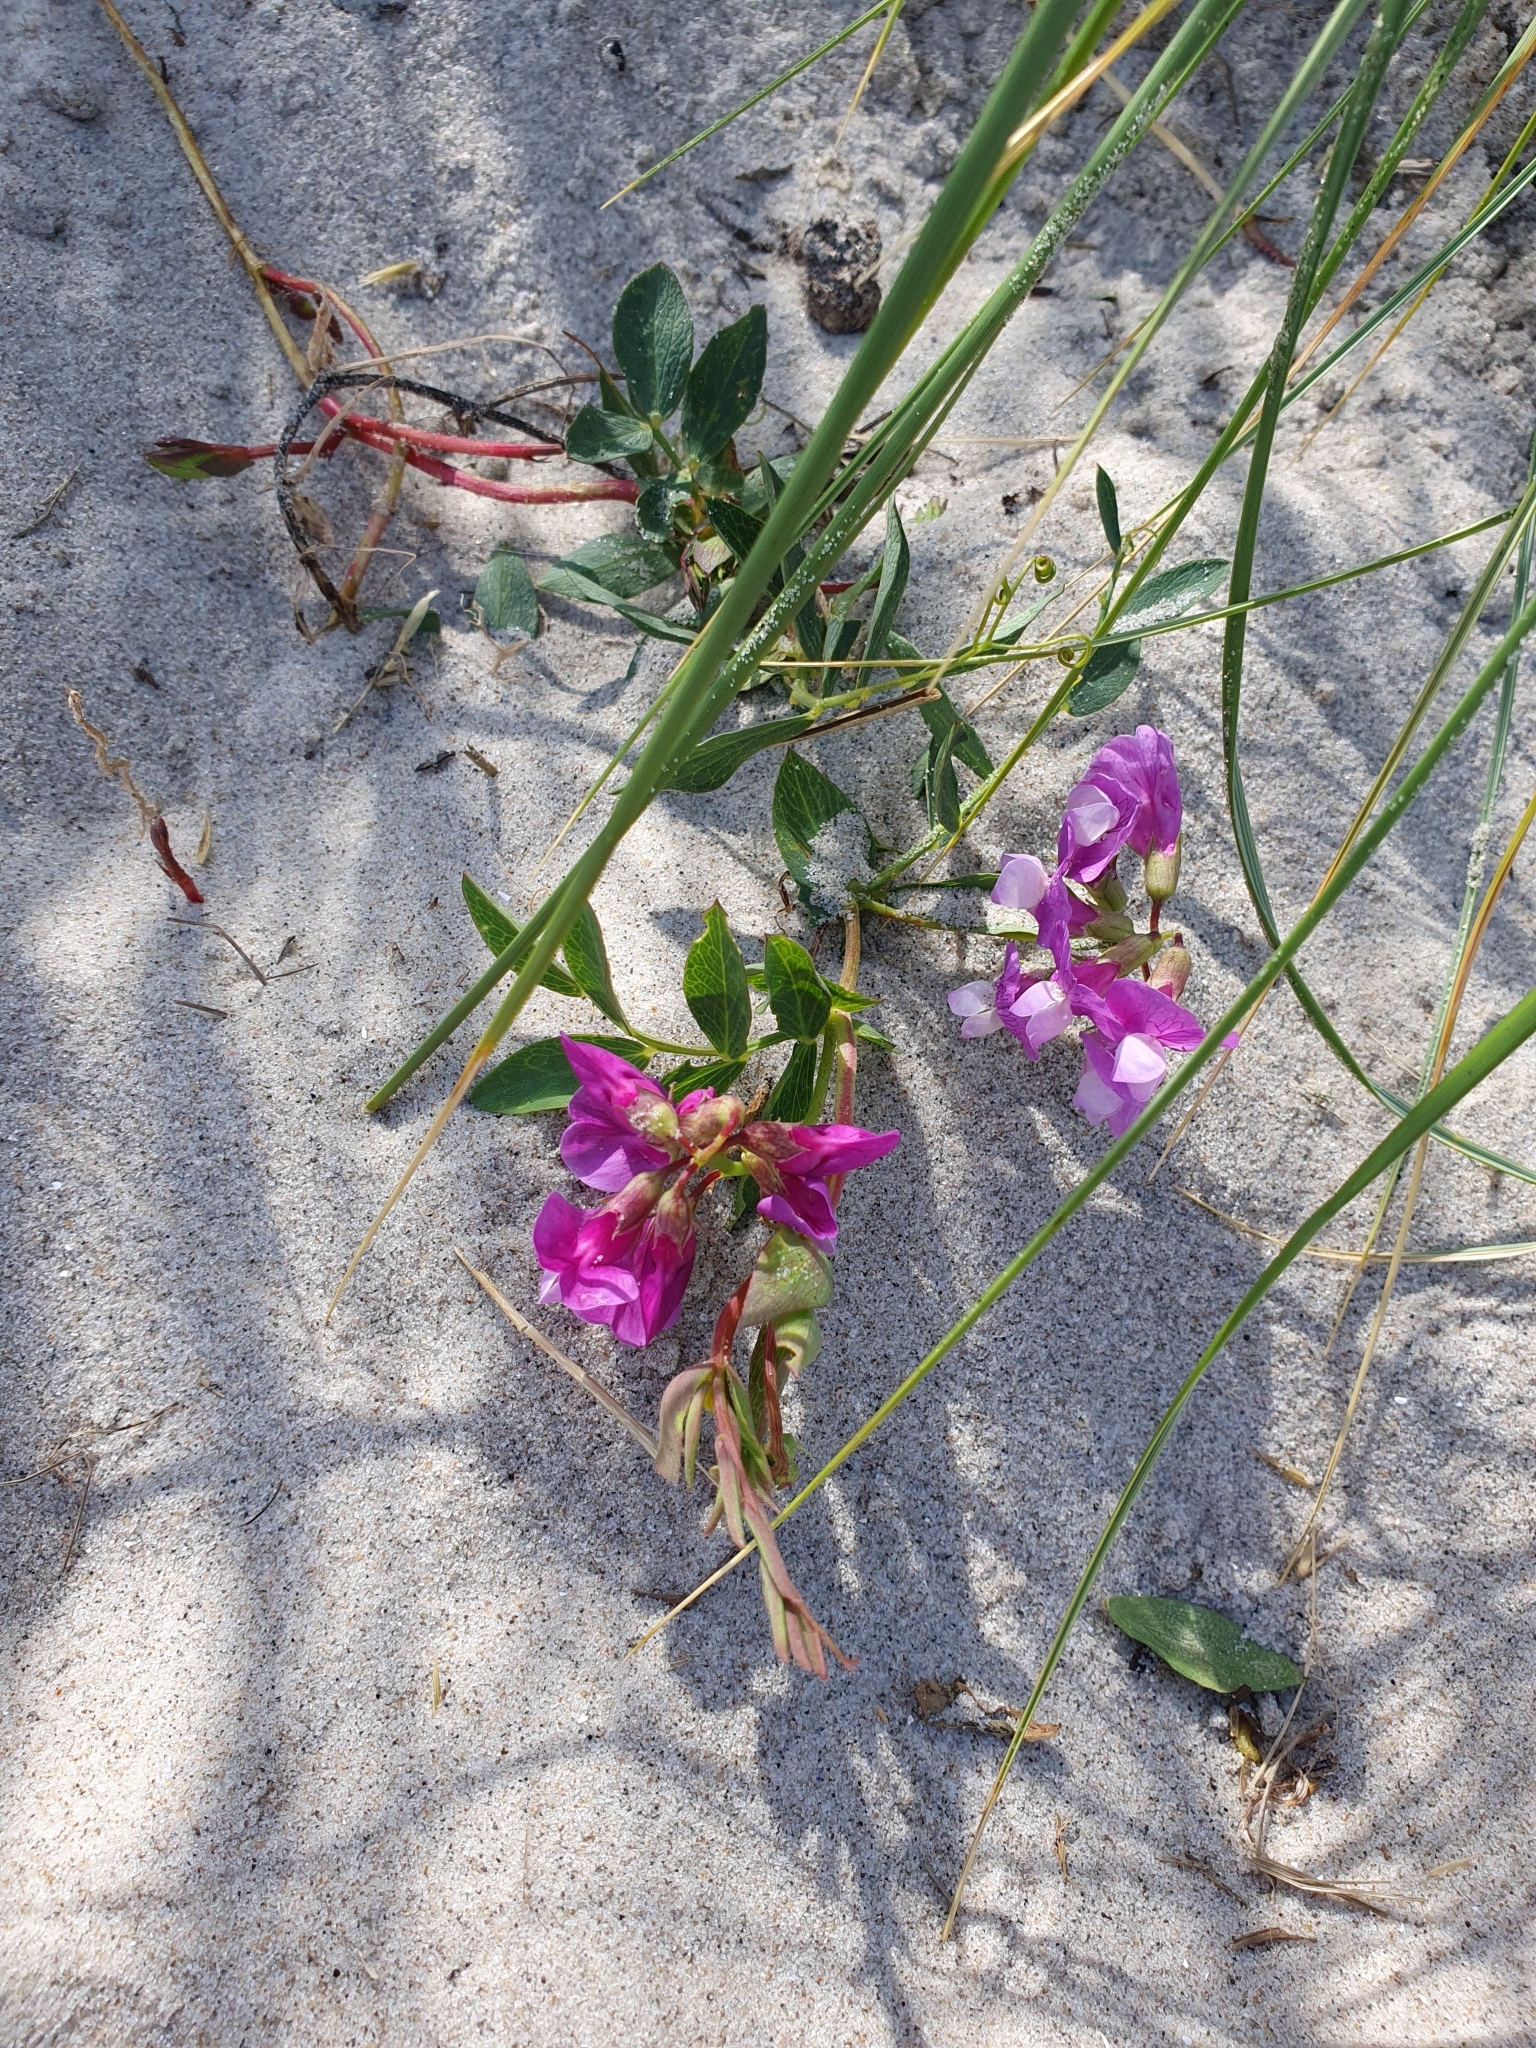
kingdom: Plantae
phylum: Tracheophyta
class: Magnoliopsida
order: Fabales
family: Fabaceae
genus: Lathyrus
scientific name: Lathyrus japonicus
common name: Sea pea
